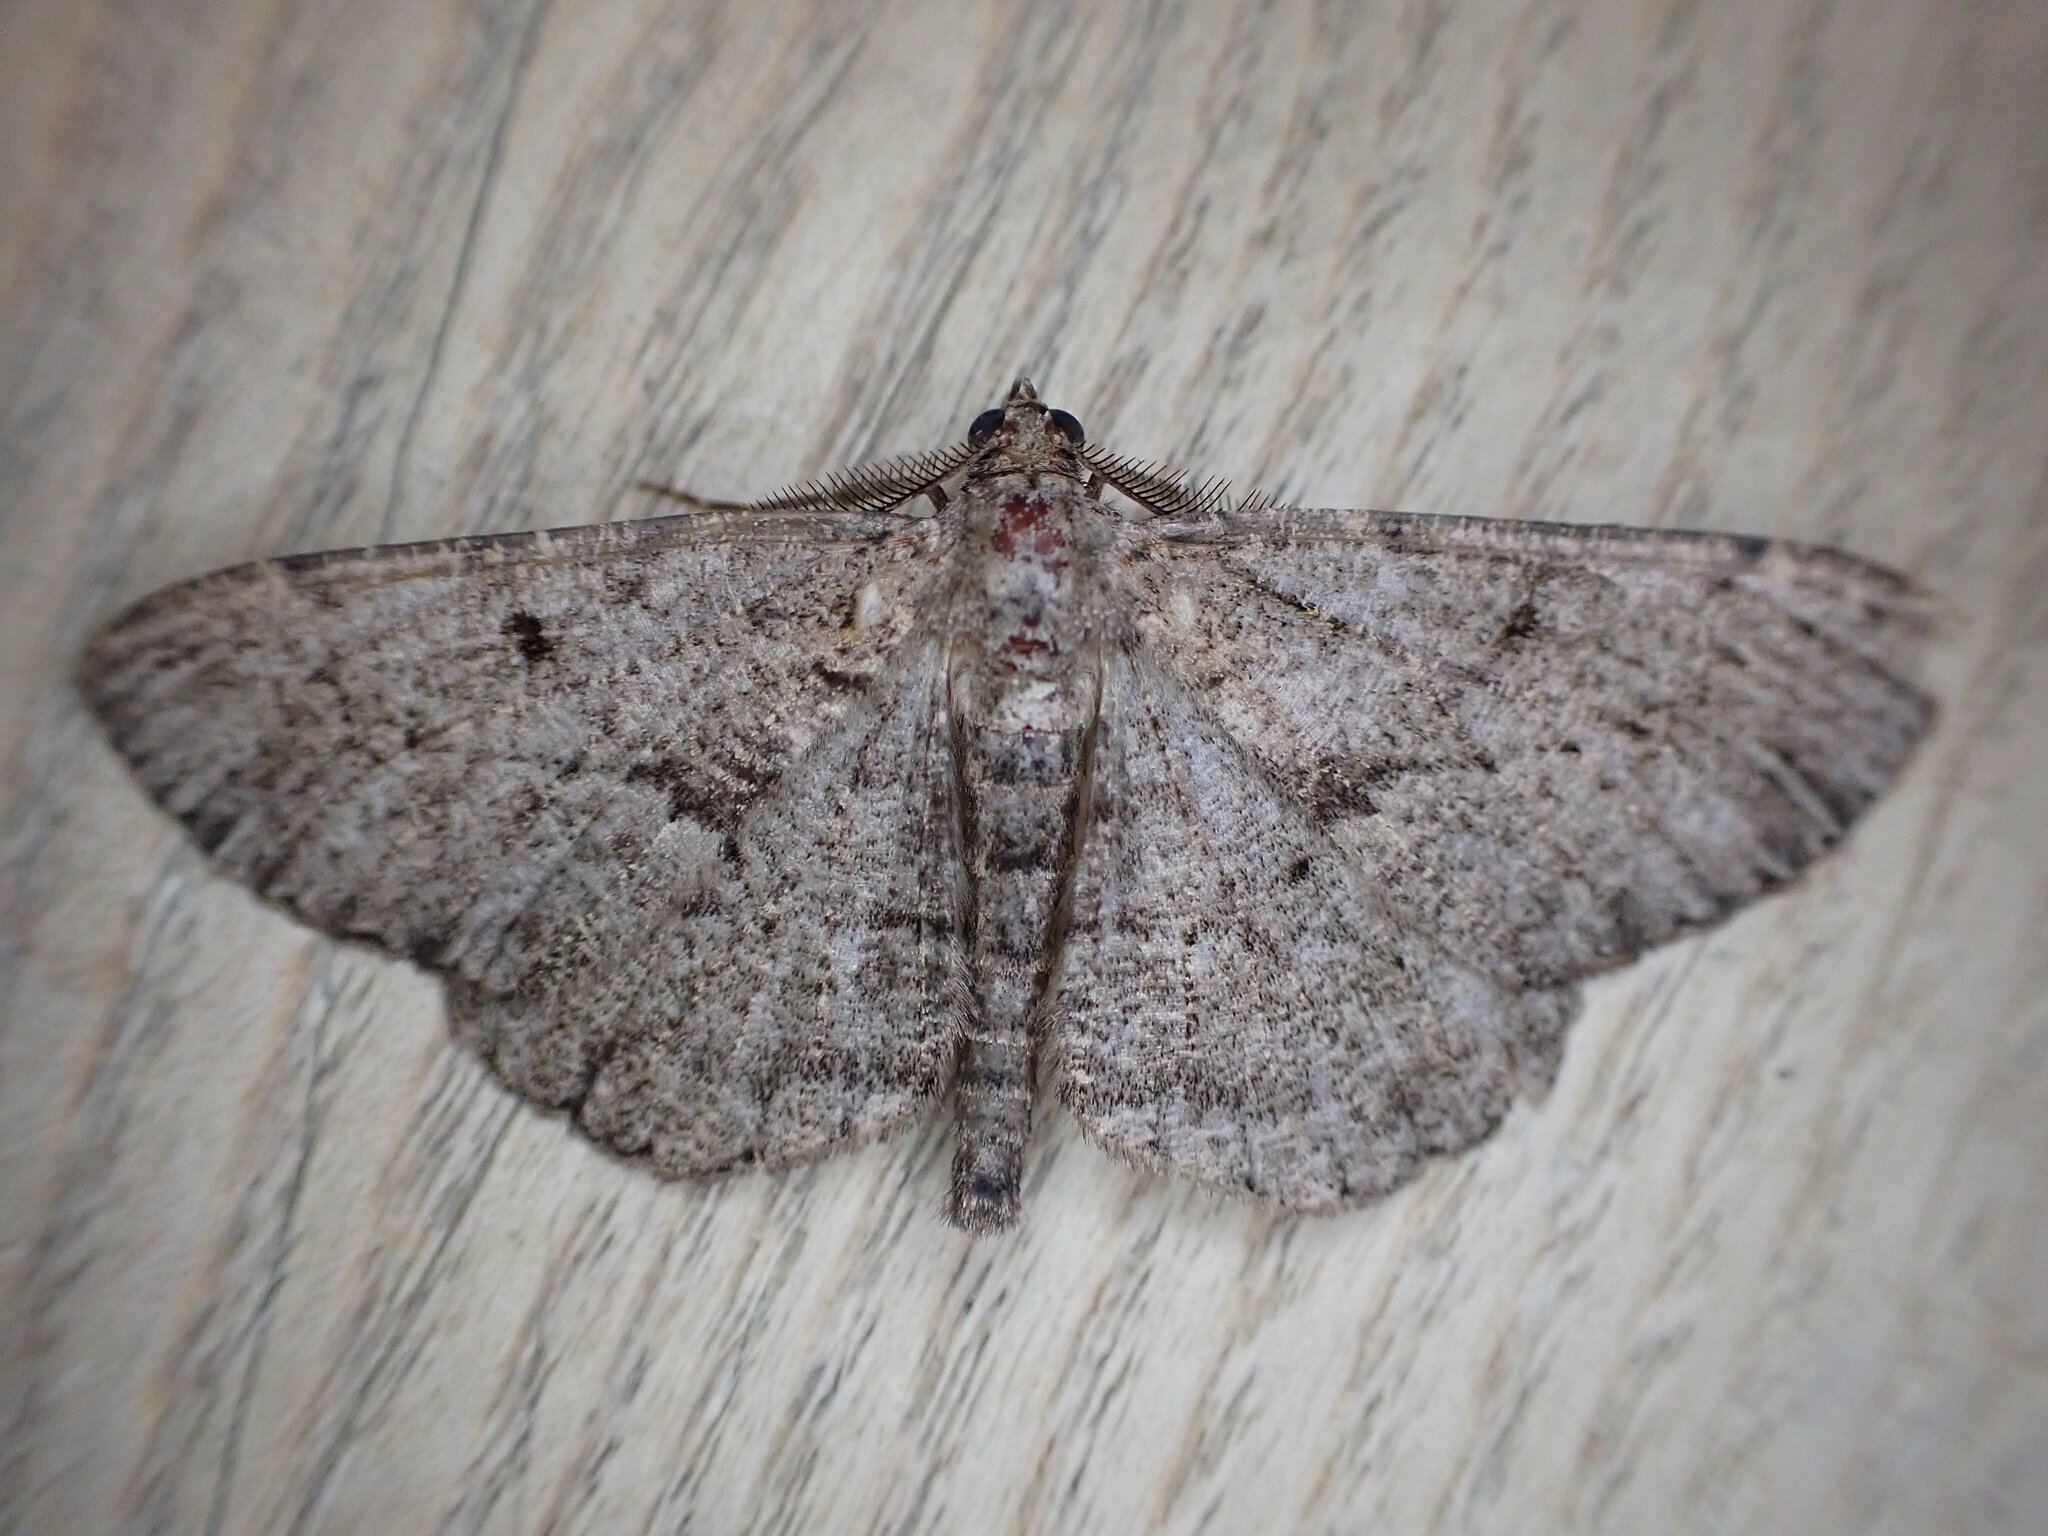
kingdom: Animalia
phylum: Arthropoda
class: Insecta
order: Lepidoptera
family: Geometridae
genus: Peribatodes
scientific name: Peribatodes rhomboidaria
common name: Willow beauty
